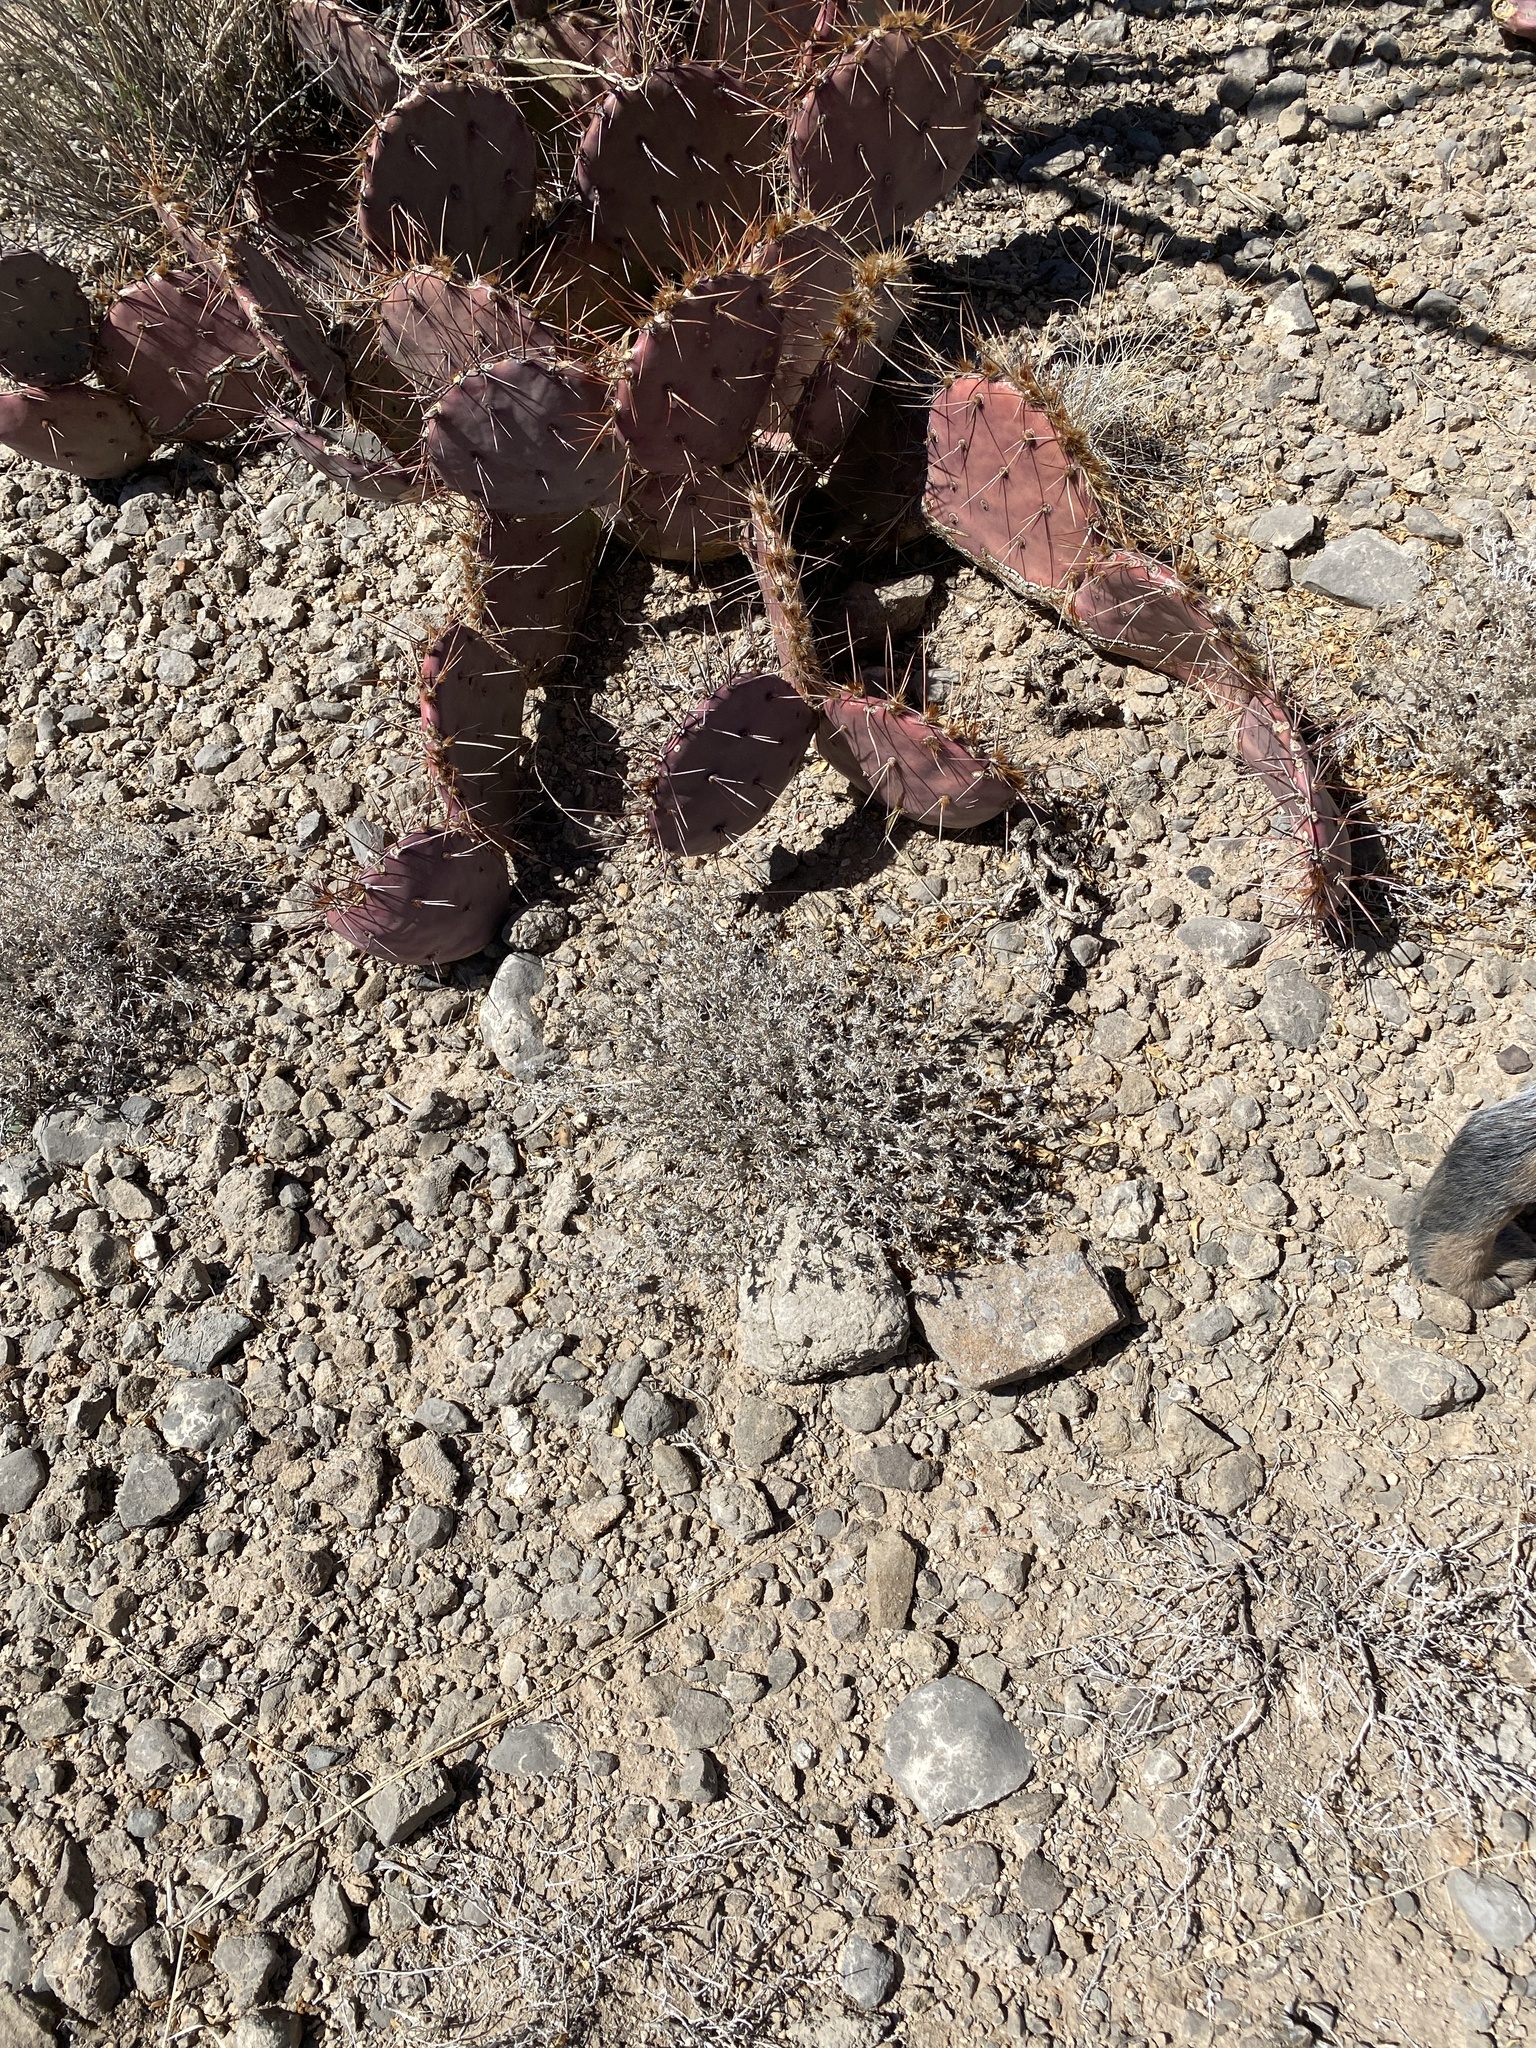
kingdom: Plantae
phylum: Tracheophyta
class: Magnoliopsida
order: Boraginales
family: Ehretiaceae
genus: Tiquilia
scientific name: Tiquilia greggii
